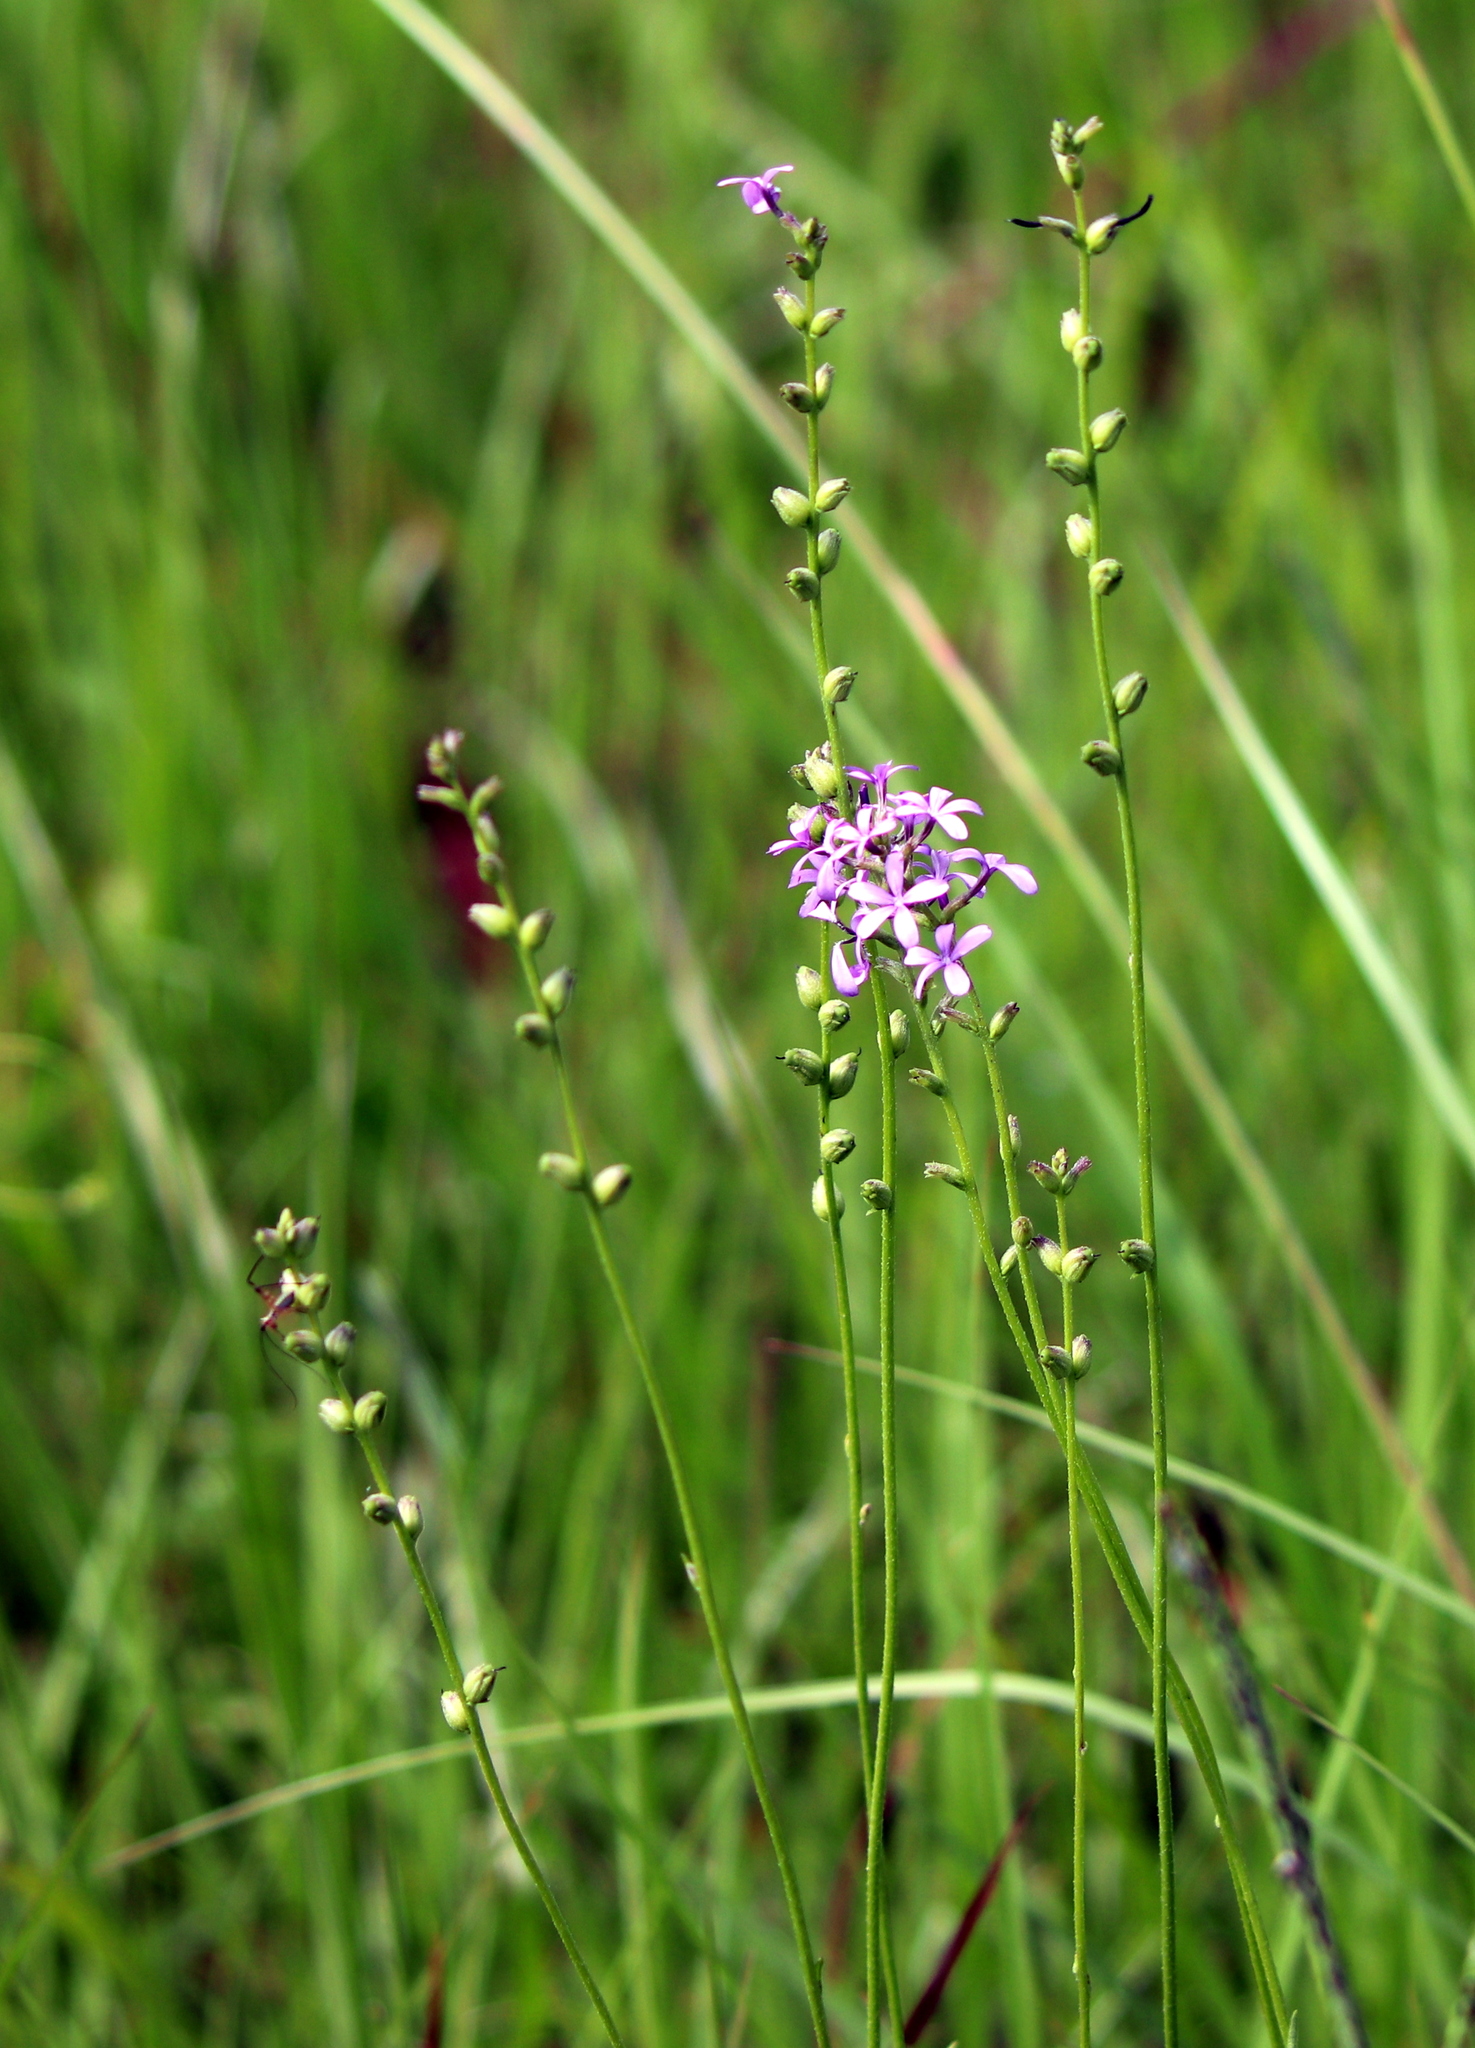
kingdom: Plantae
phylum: Tracheophyta
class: Magnoliopsida
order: Lamiales
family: Orobanchaceae
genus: Buchnera
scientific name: Buchnera floridana
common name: Florida bluehearts
